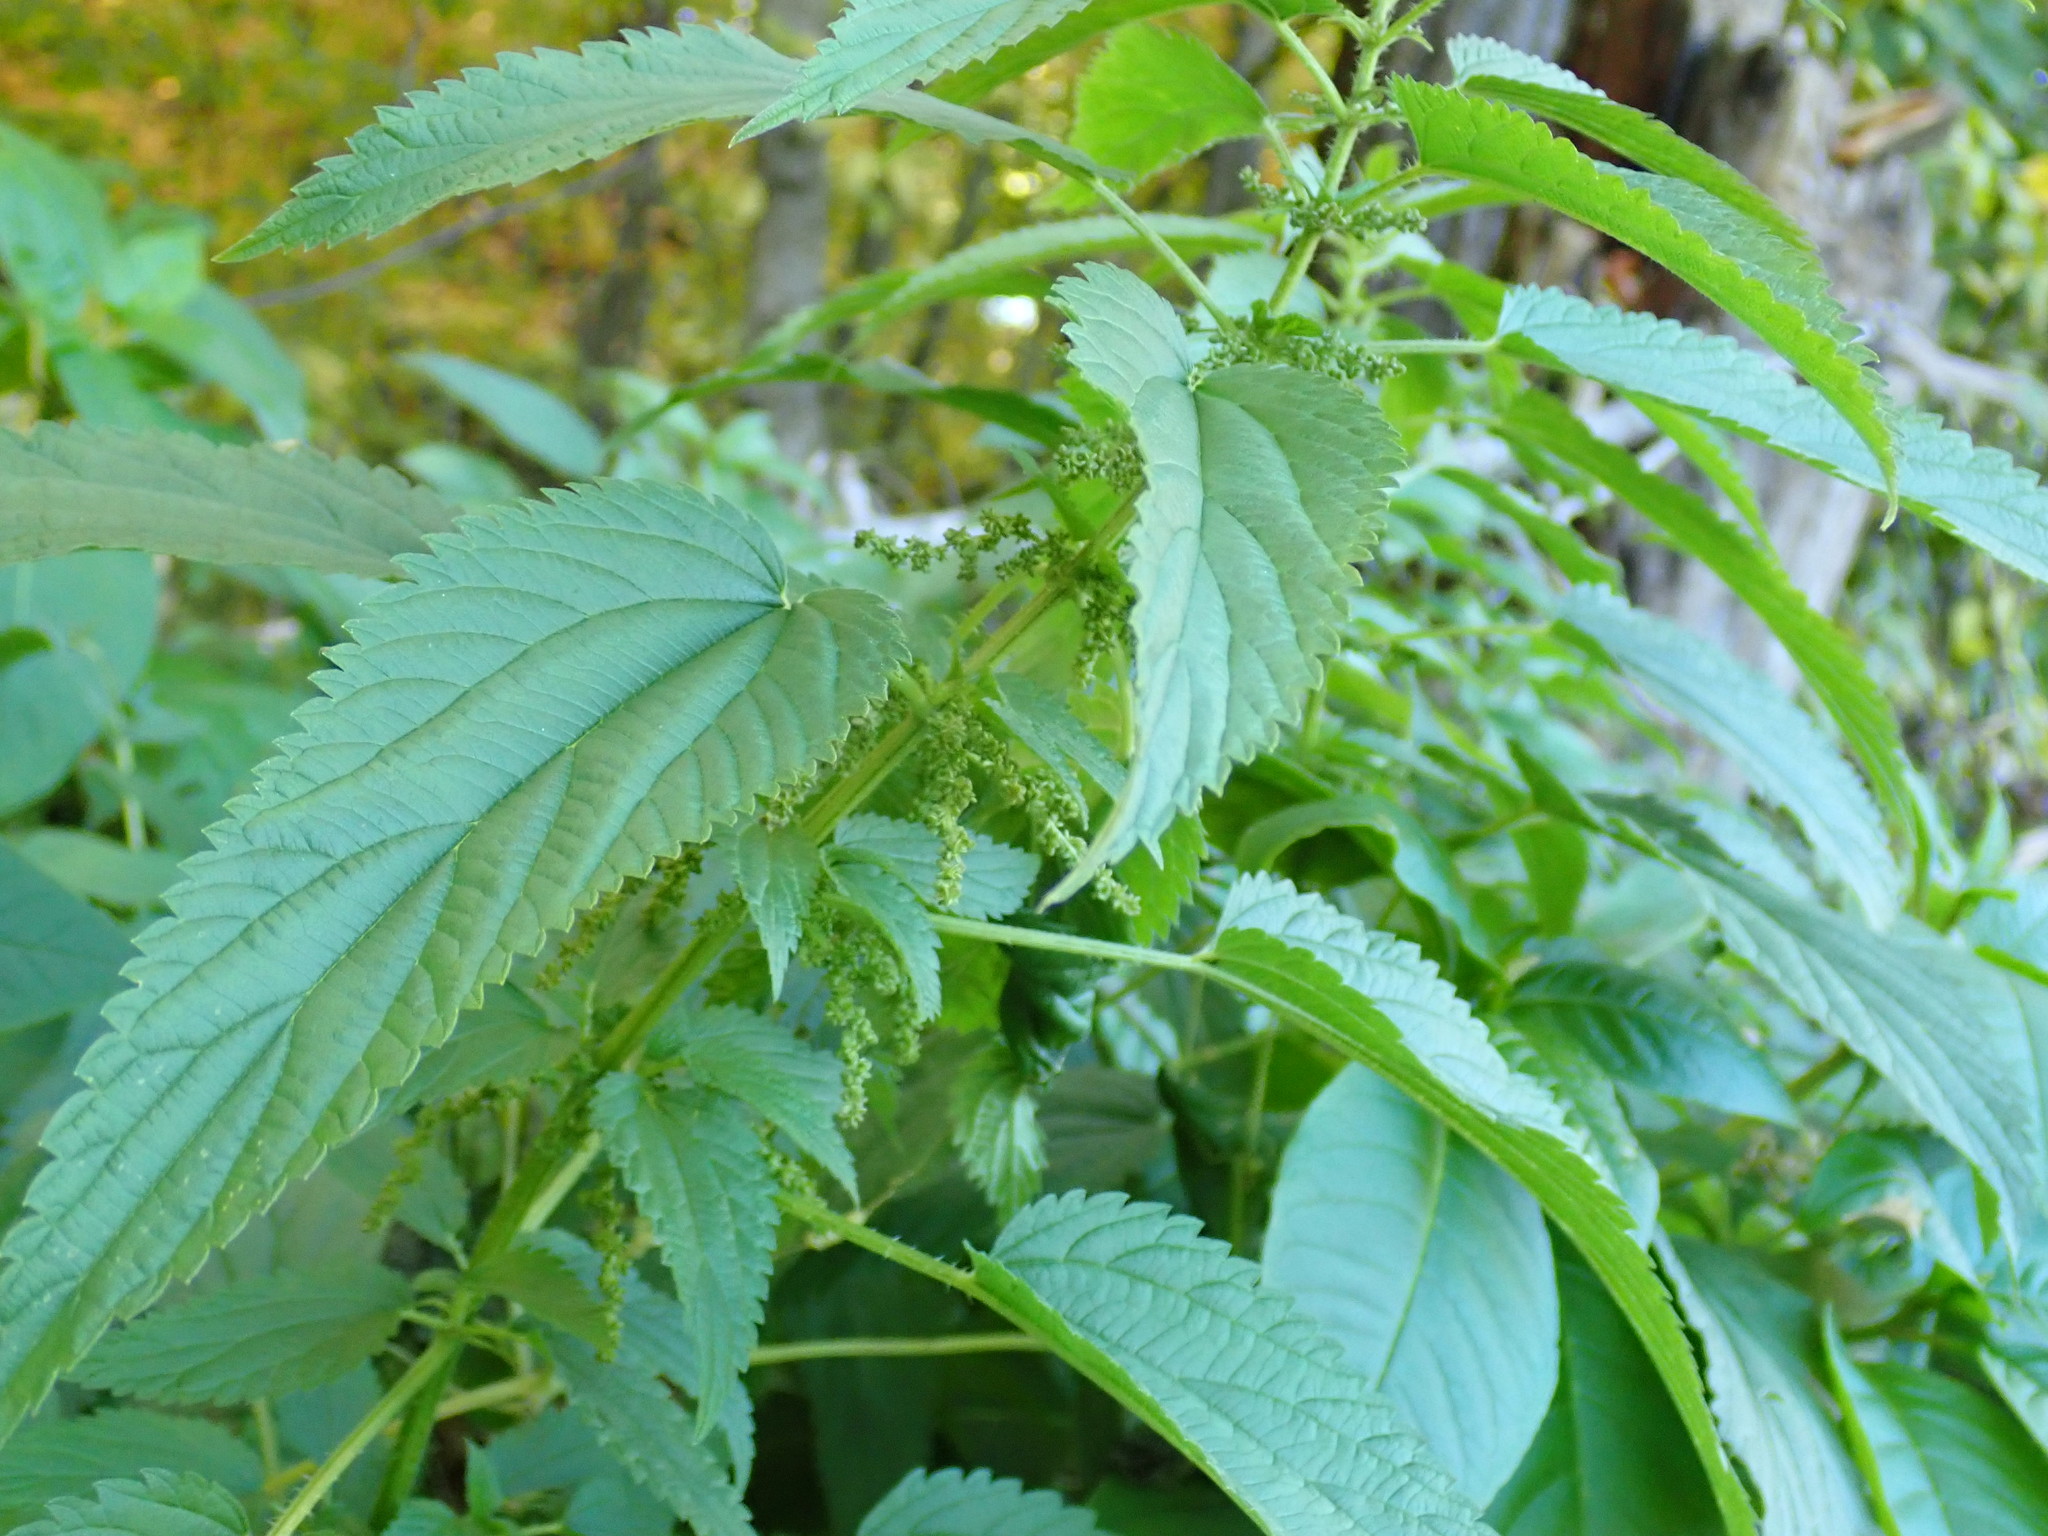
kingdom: Plantae
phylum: Tracheophyta
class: Magnoliopsida
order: Rosales
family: Urticaceae
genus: Urtica
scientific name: Urtica dioica
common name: Common nettle
